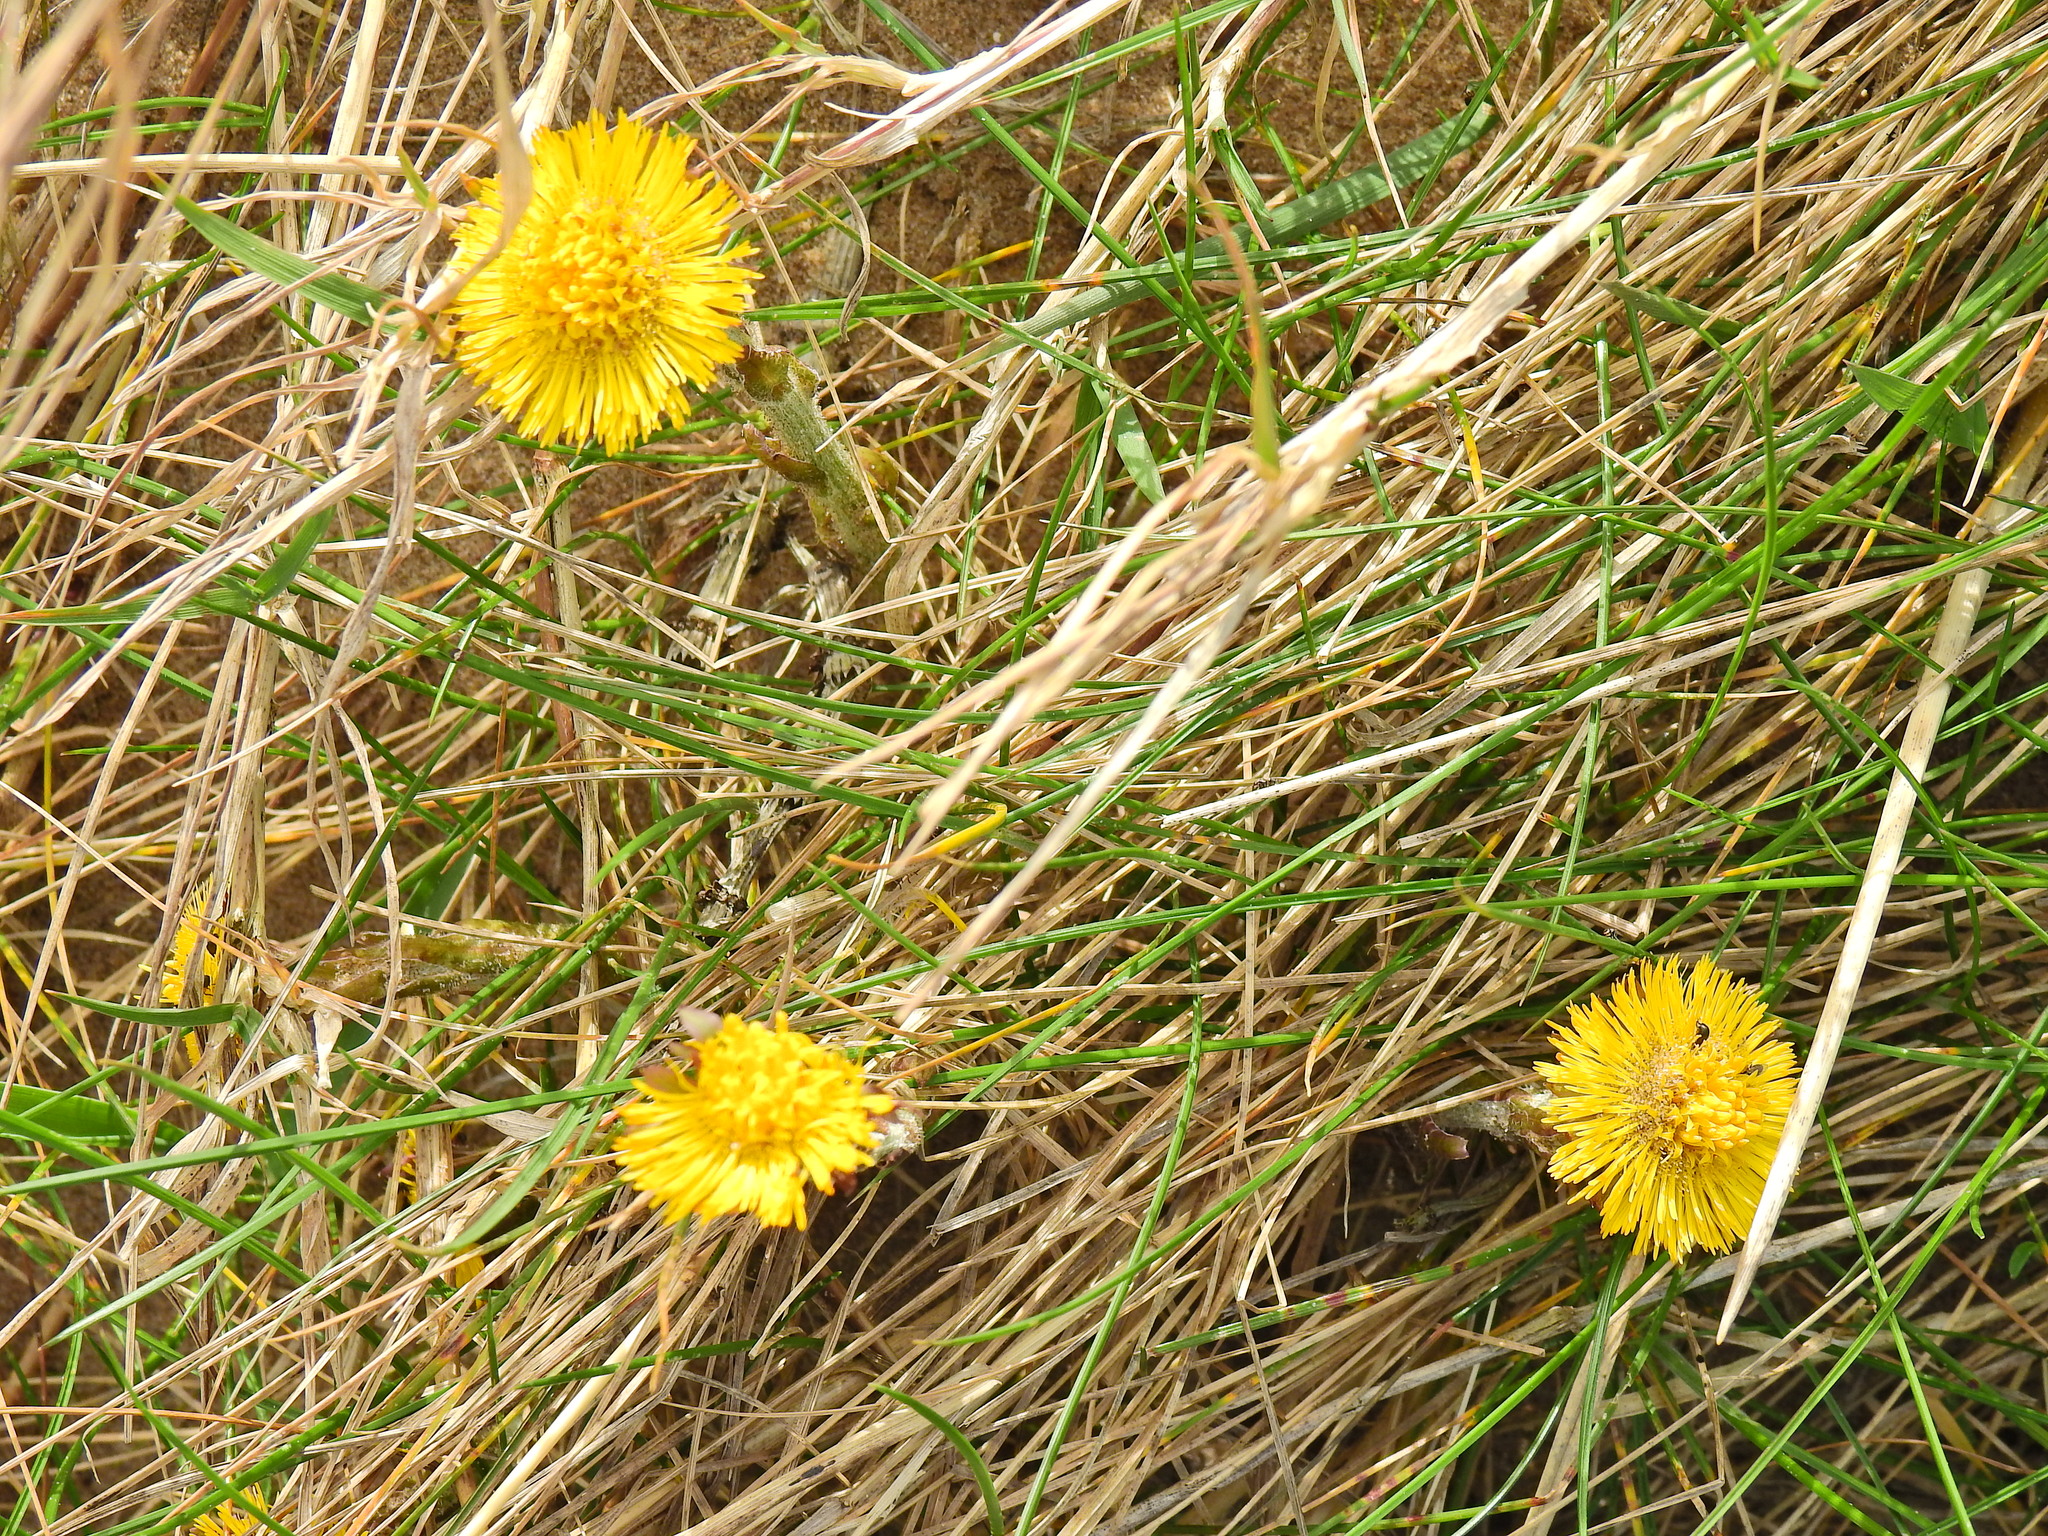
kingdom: Plantae
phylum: Tracheophyta
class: Magnoliopsida
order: Asterales
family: Asteraceae
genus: Tussilago
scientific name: Tussilago farfara
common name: Coltsfoot
